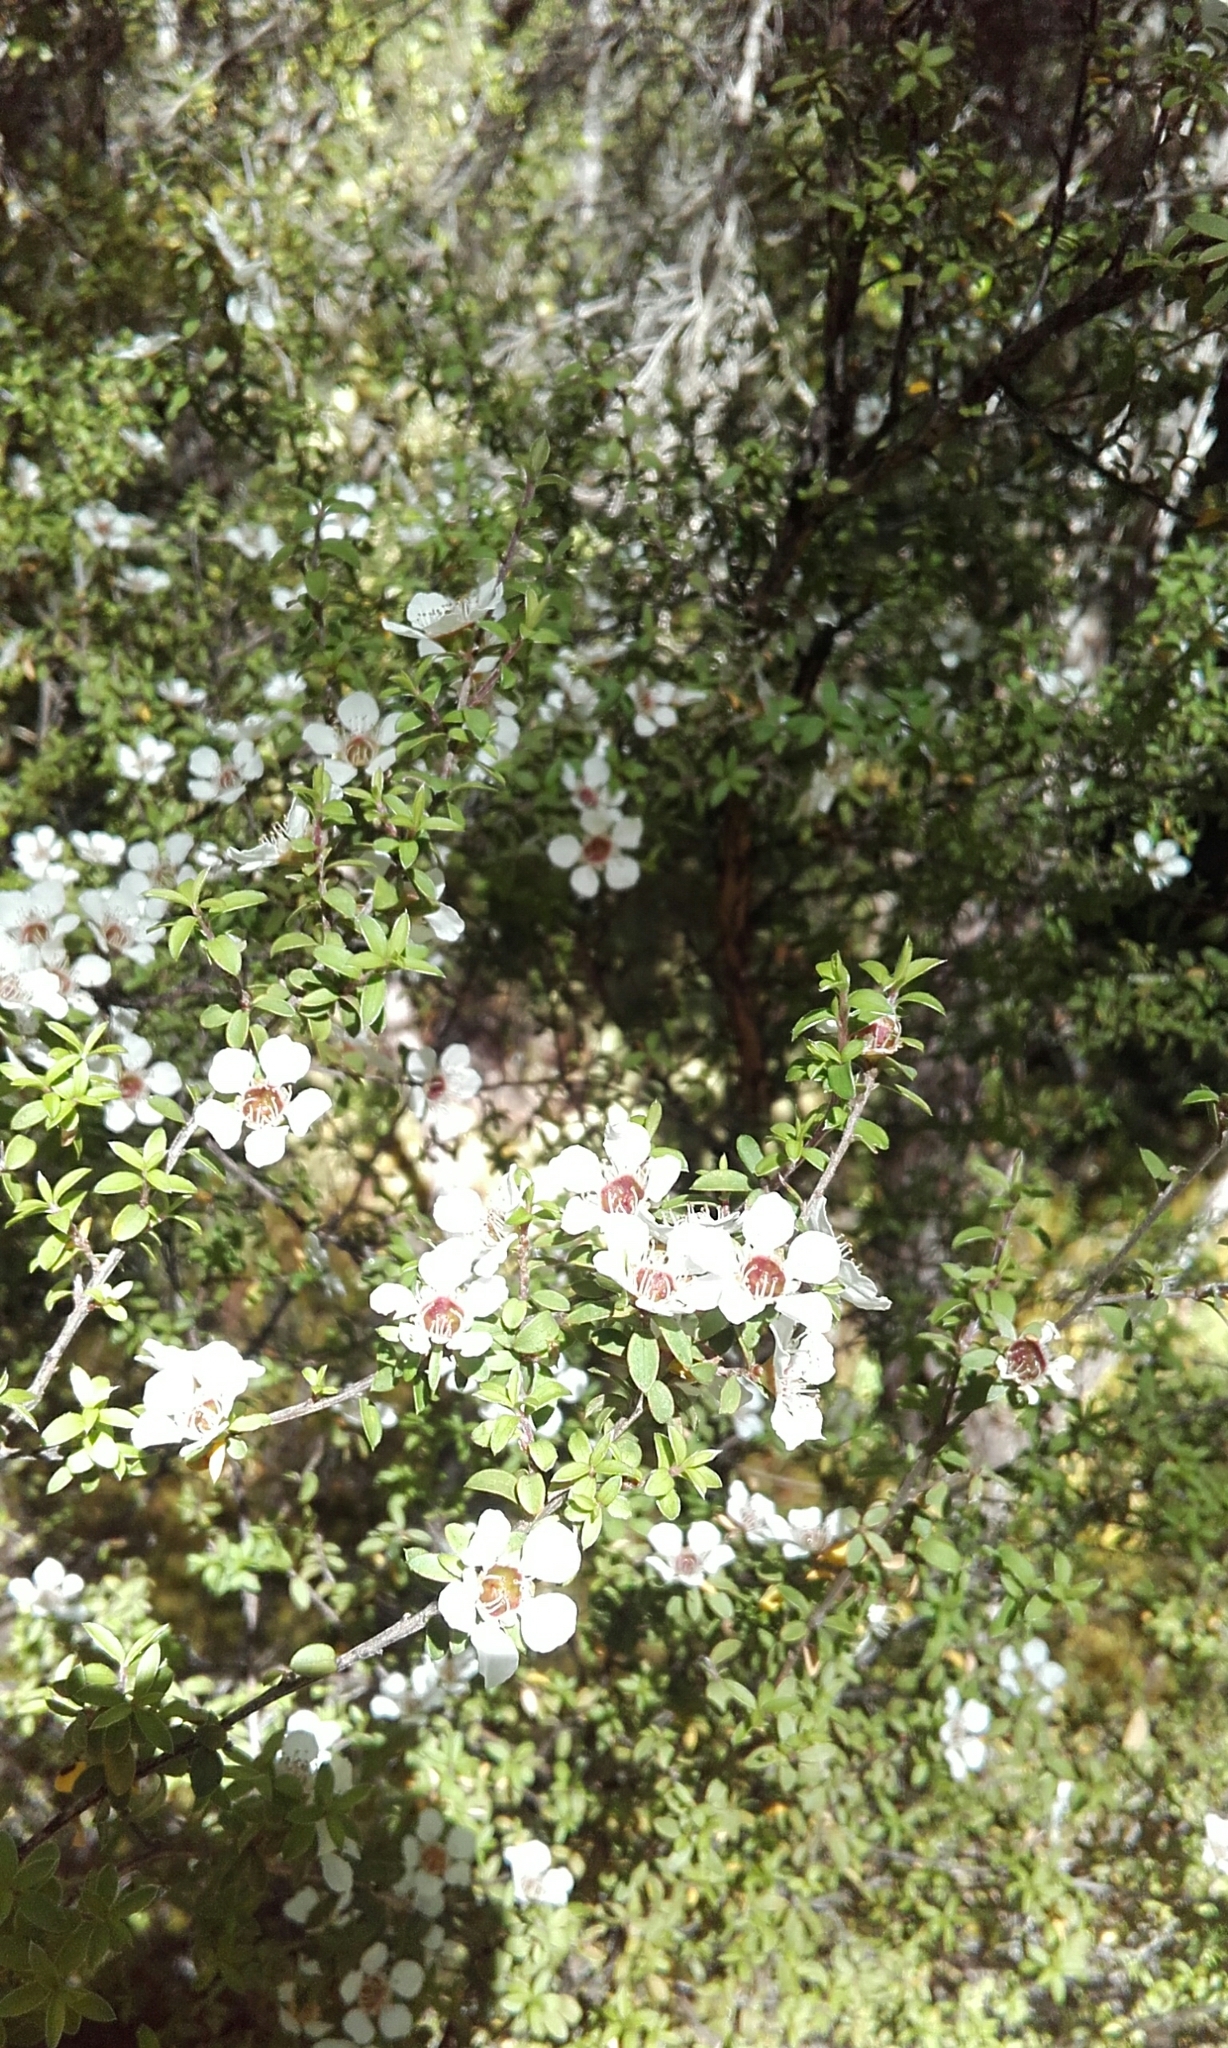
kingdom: Plantae
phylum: Tracheophyta
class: Magnoliopsida
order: Myrtales
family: Myrtaceae
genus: Leptospermum
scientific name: Leptospermum scoparium
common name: Broom tea-tree
